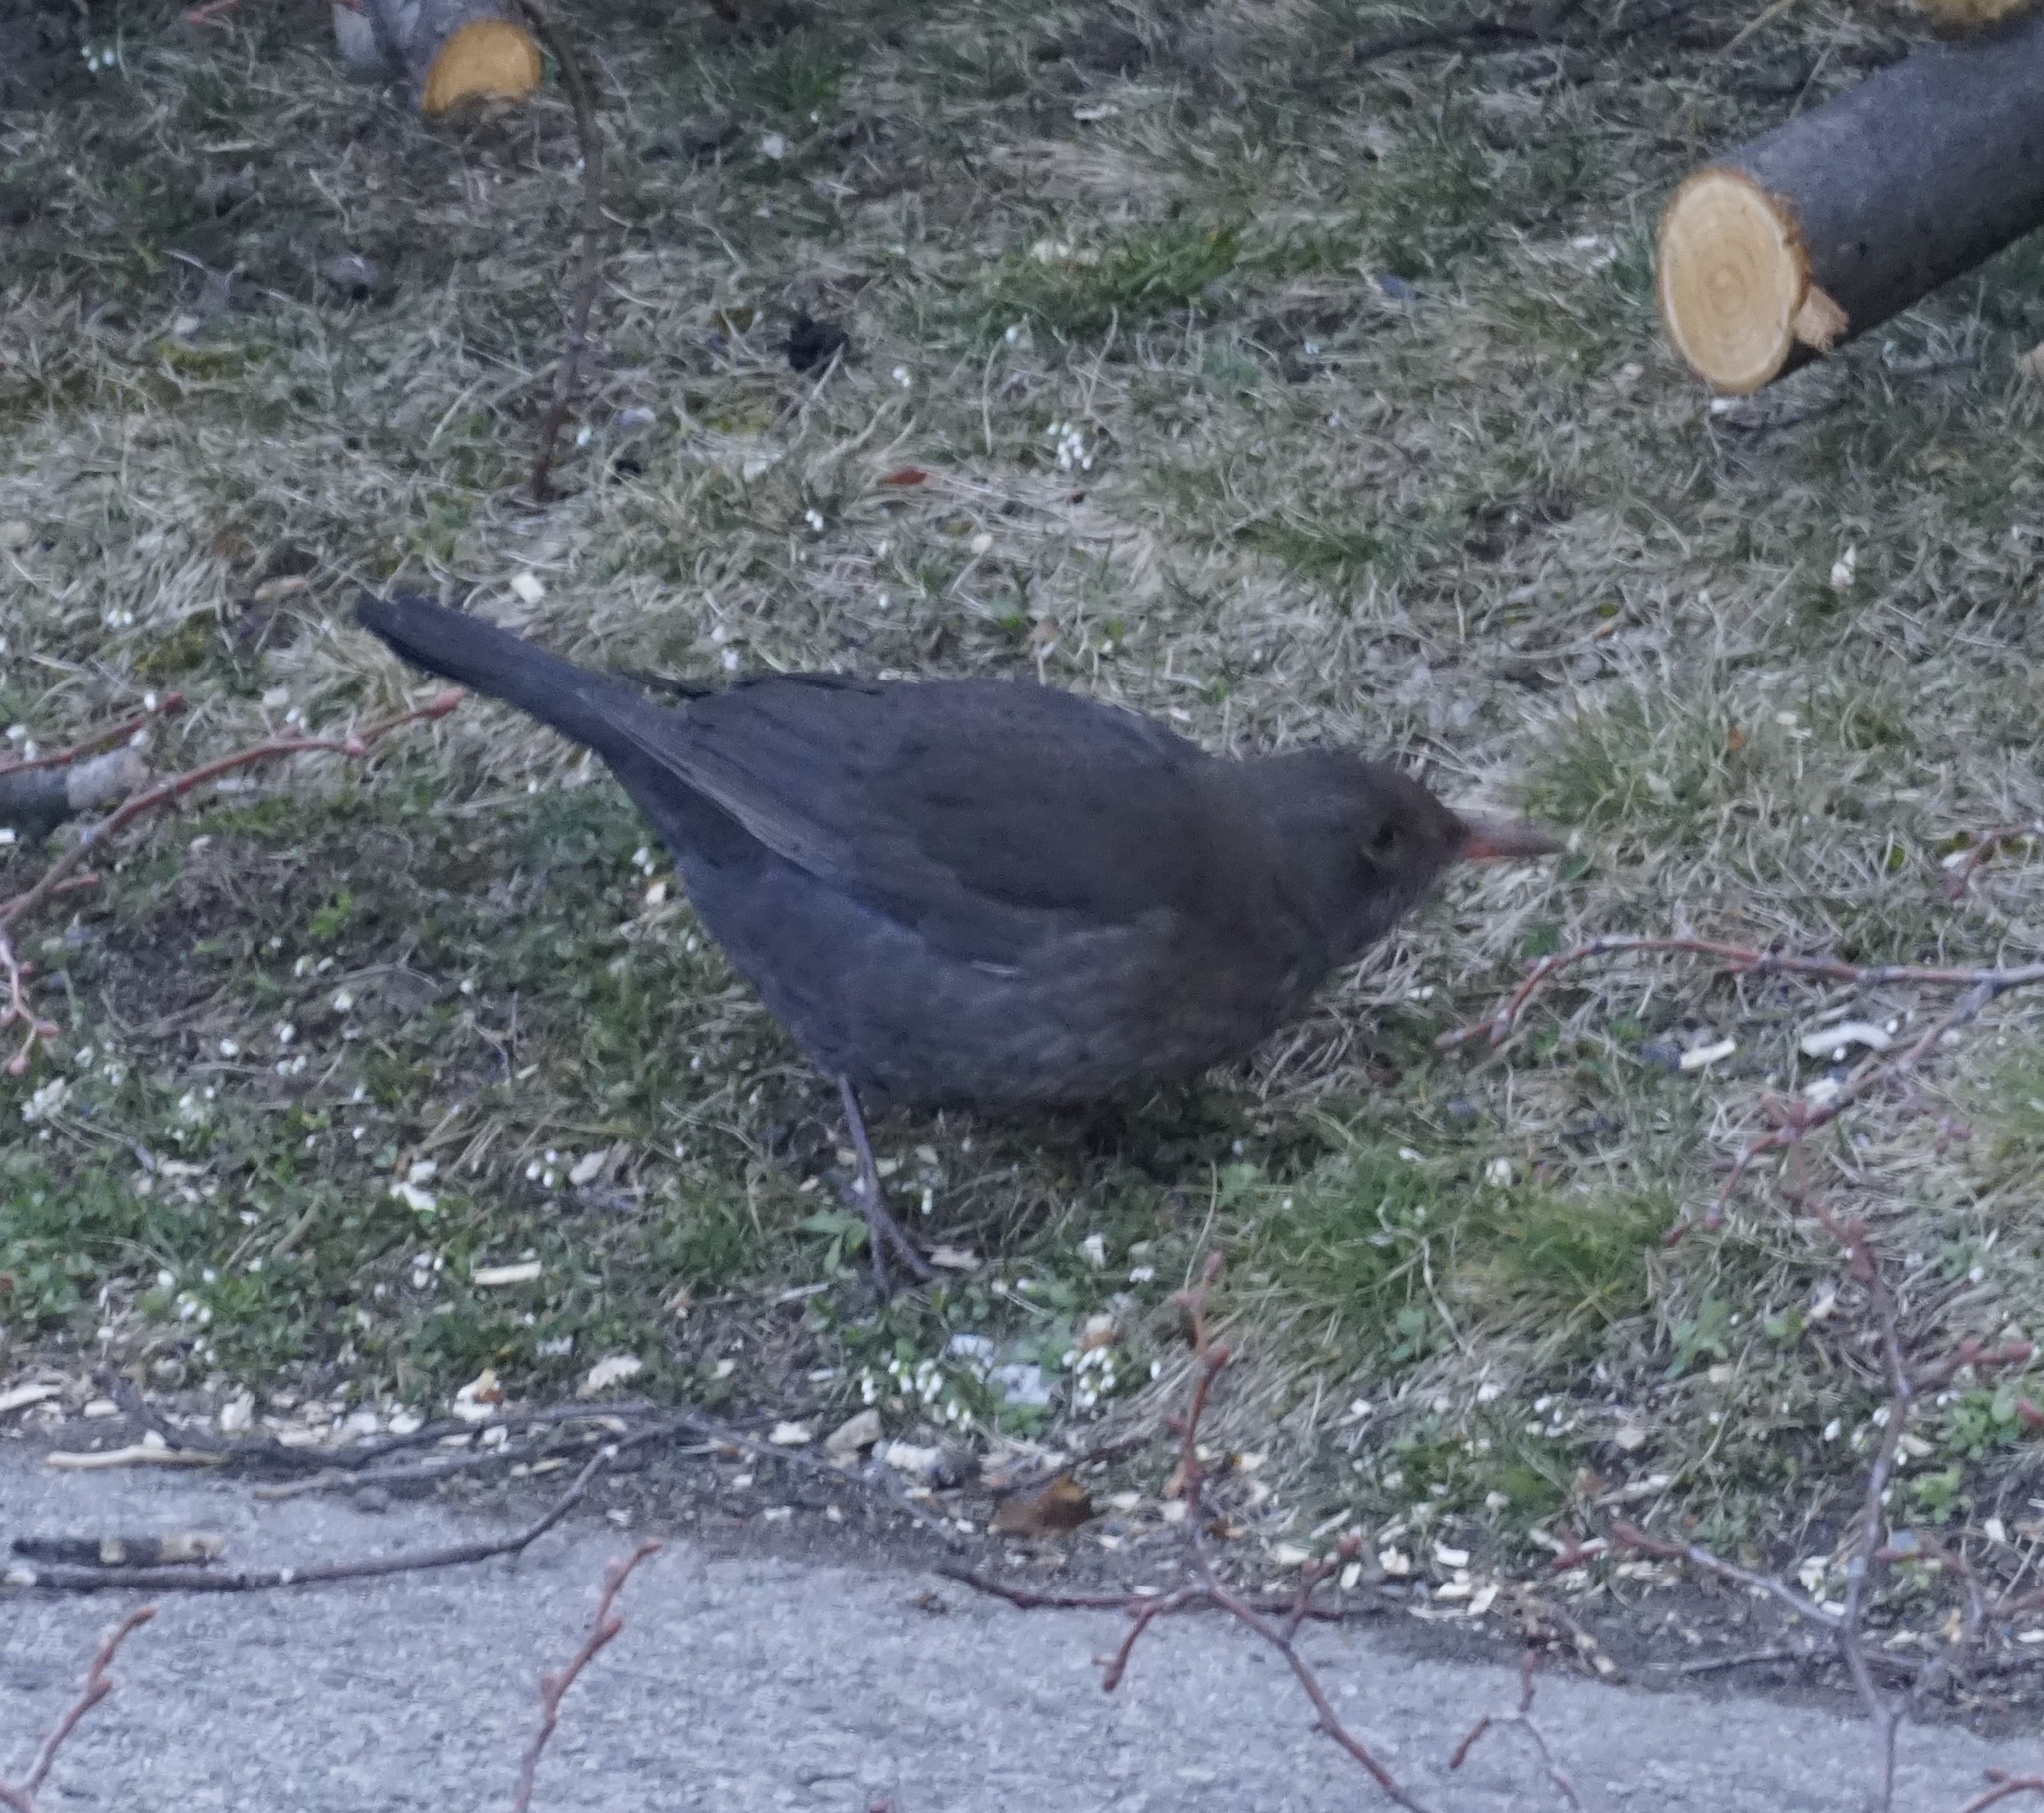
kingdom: Animalia
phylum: Chordata
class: Aves
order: Passeriformes
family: Turdidae
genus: Turdus
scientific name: Turdus merula
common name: Common blackbird
